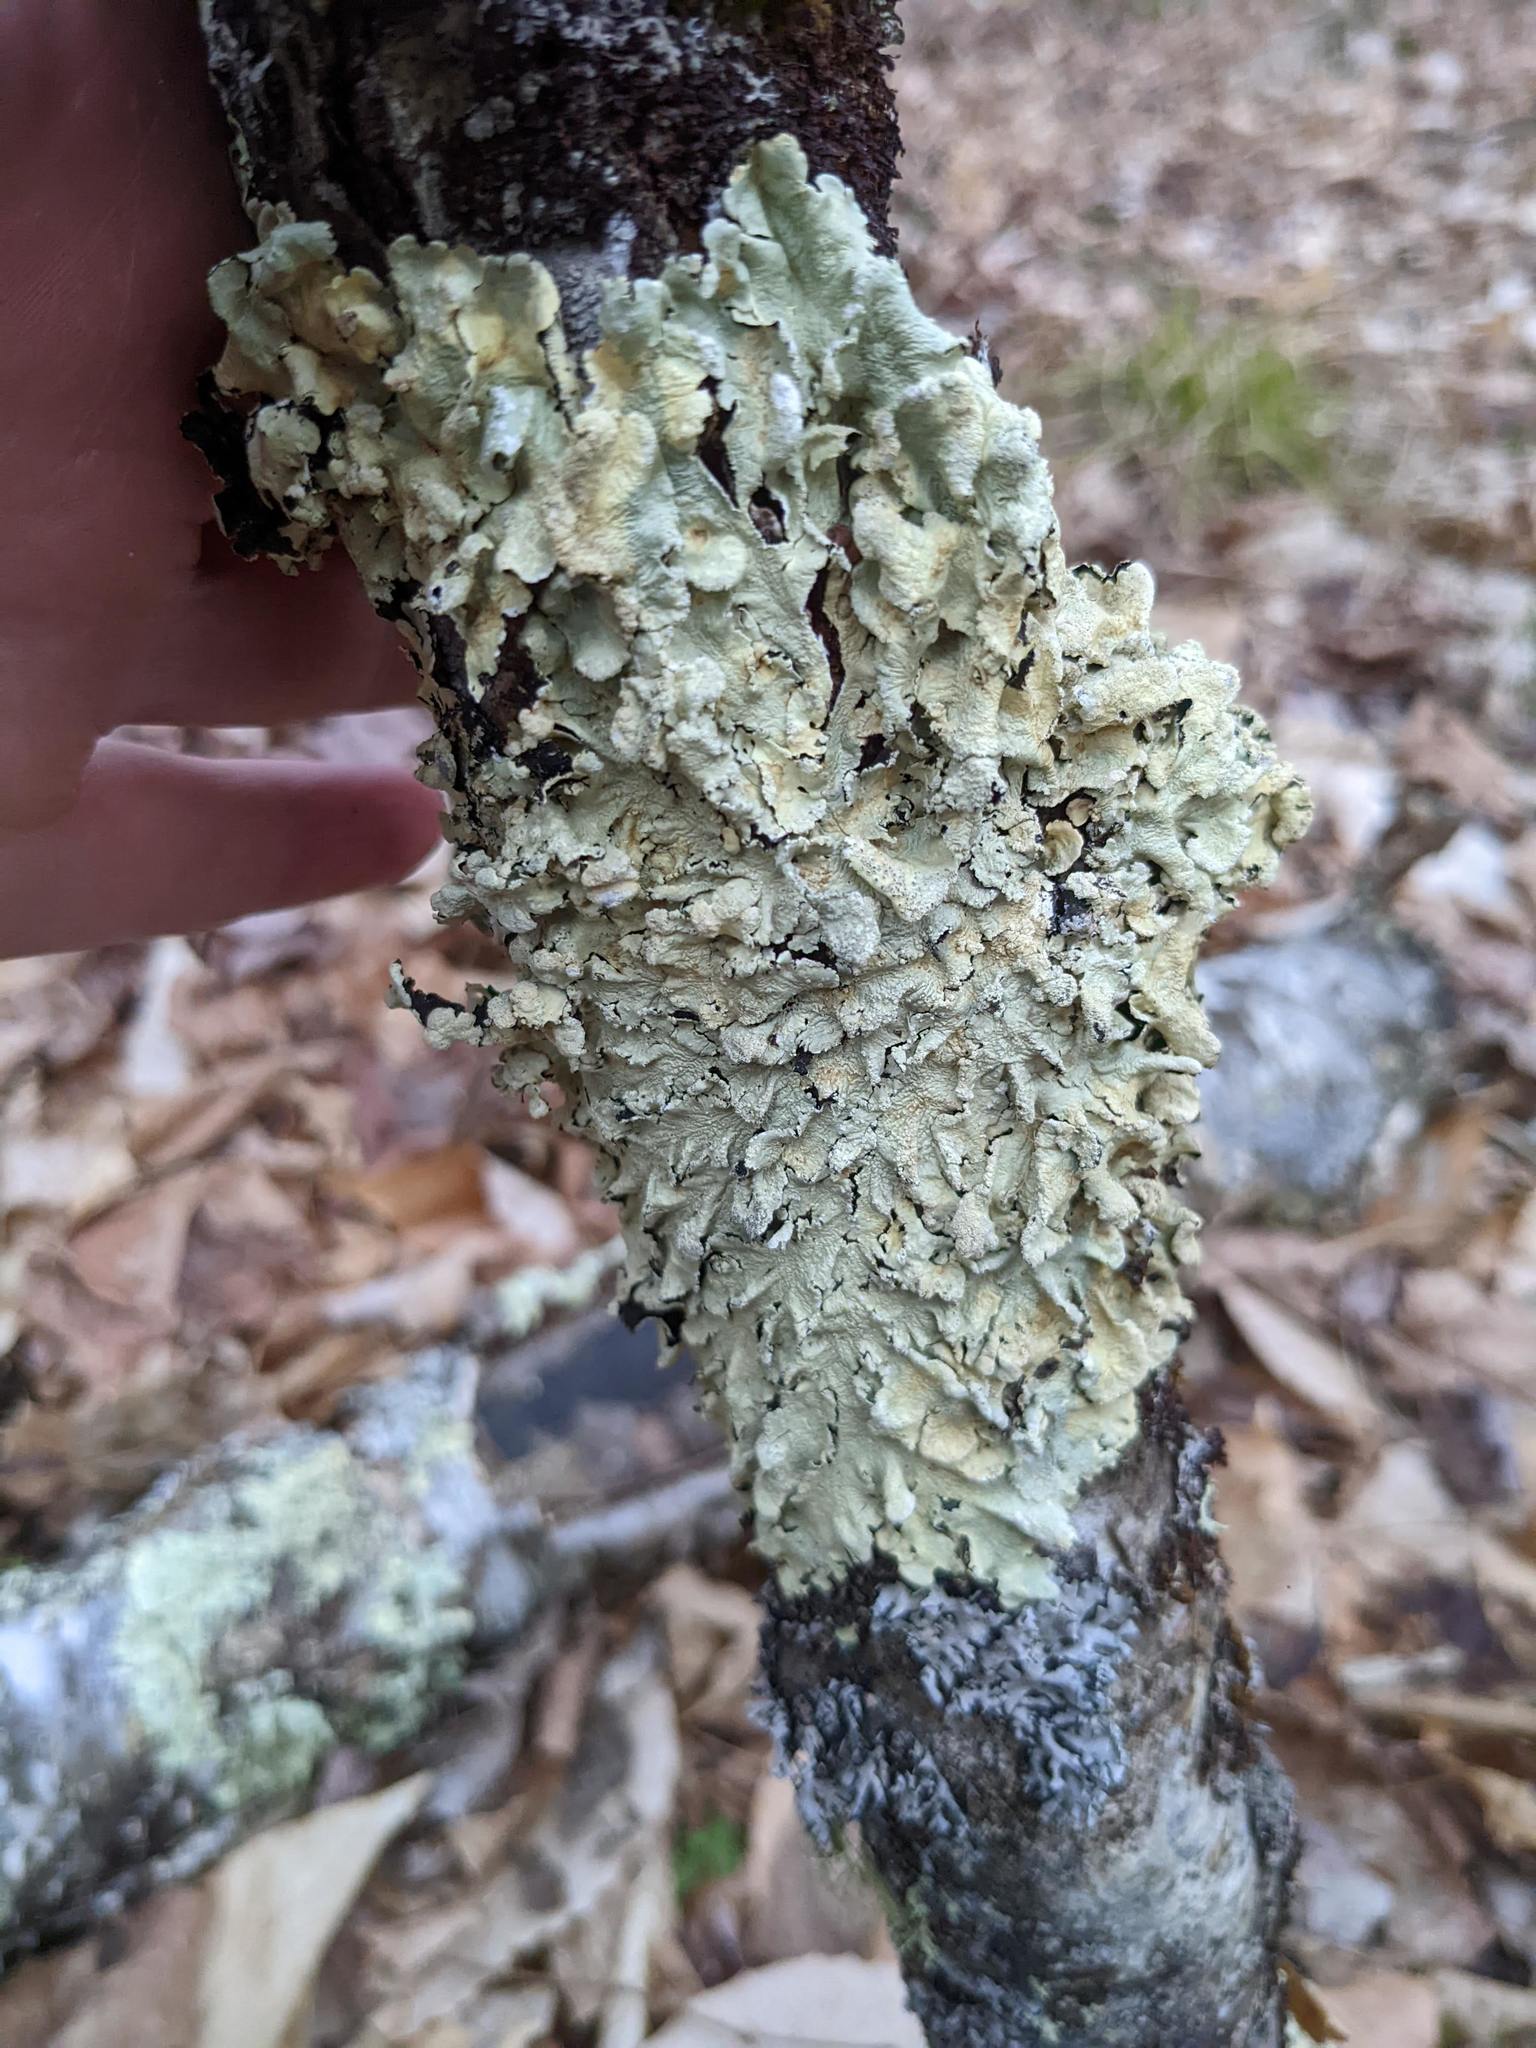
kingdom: Fungi
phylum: Ascomycota
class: Lecanoromycetes
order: Lecanorales
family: Parmeliaceae
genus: Flavoparmelia
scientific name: Flavoparmelia caperata
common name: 40-mile per hour lichen
